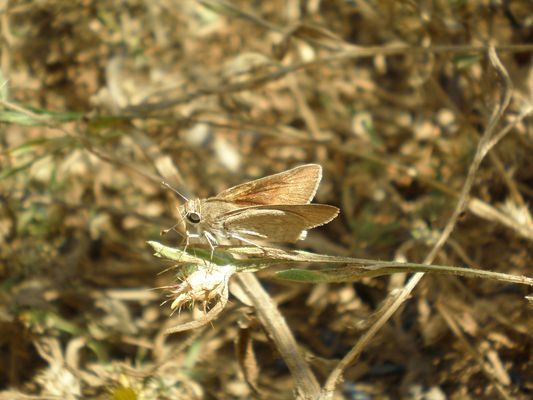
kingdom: Animalia
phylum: Arthropoda
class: Insecta
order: Lepidoptera
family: Hesperiidae
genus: Gegenes
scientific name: Gegenes nostrodamus
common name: Mediterranean skipper
